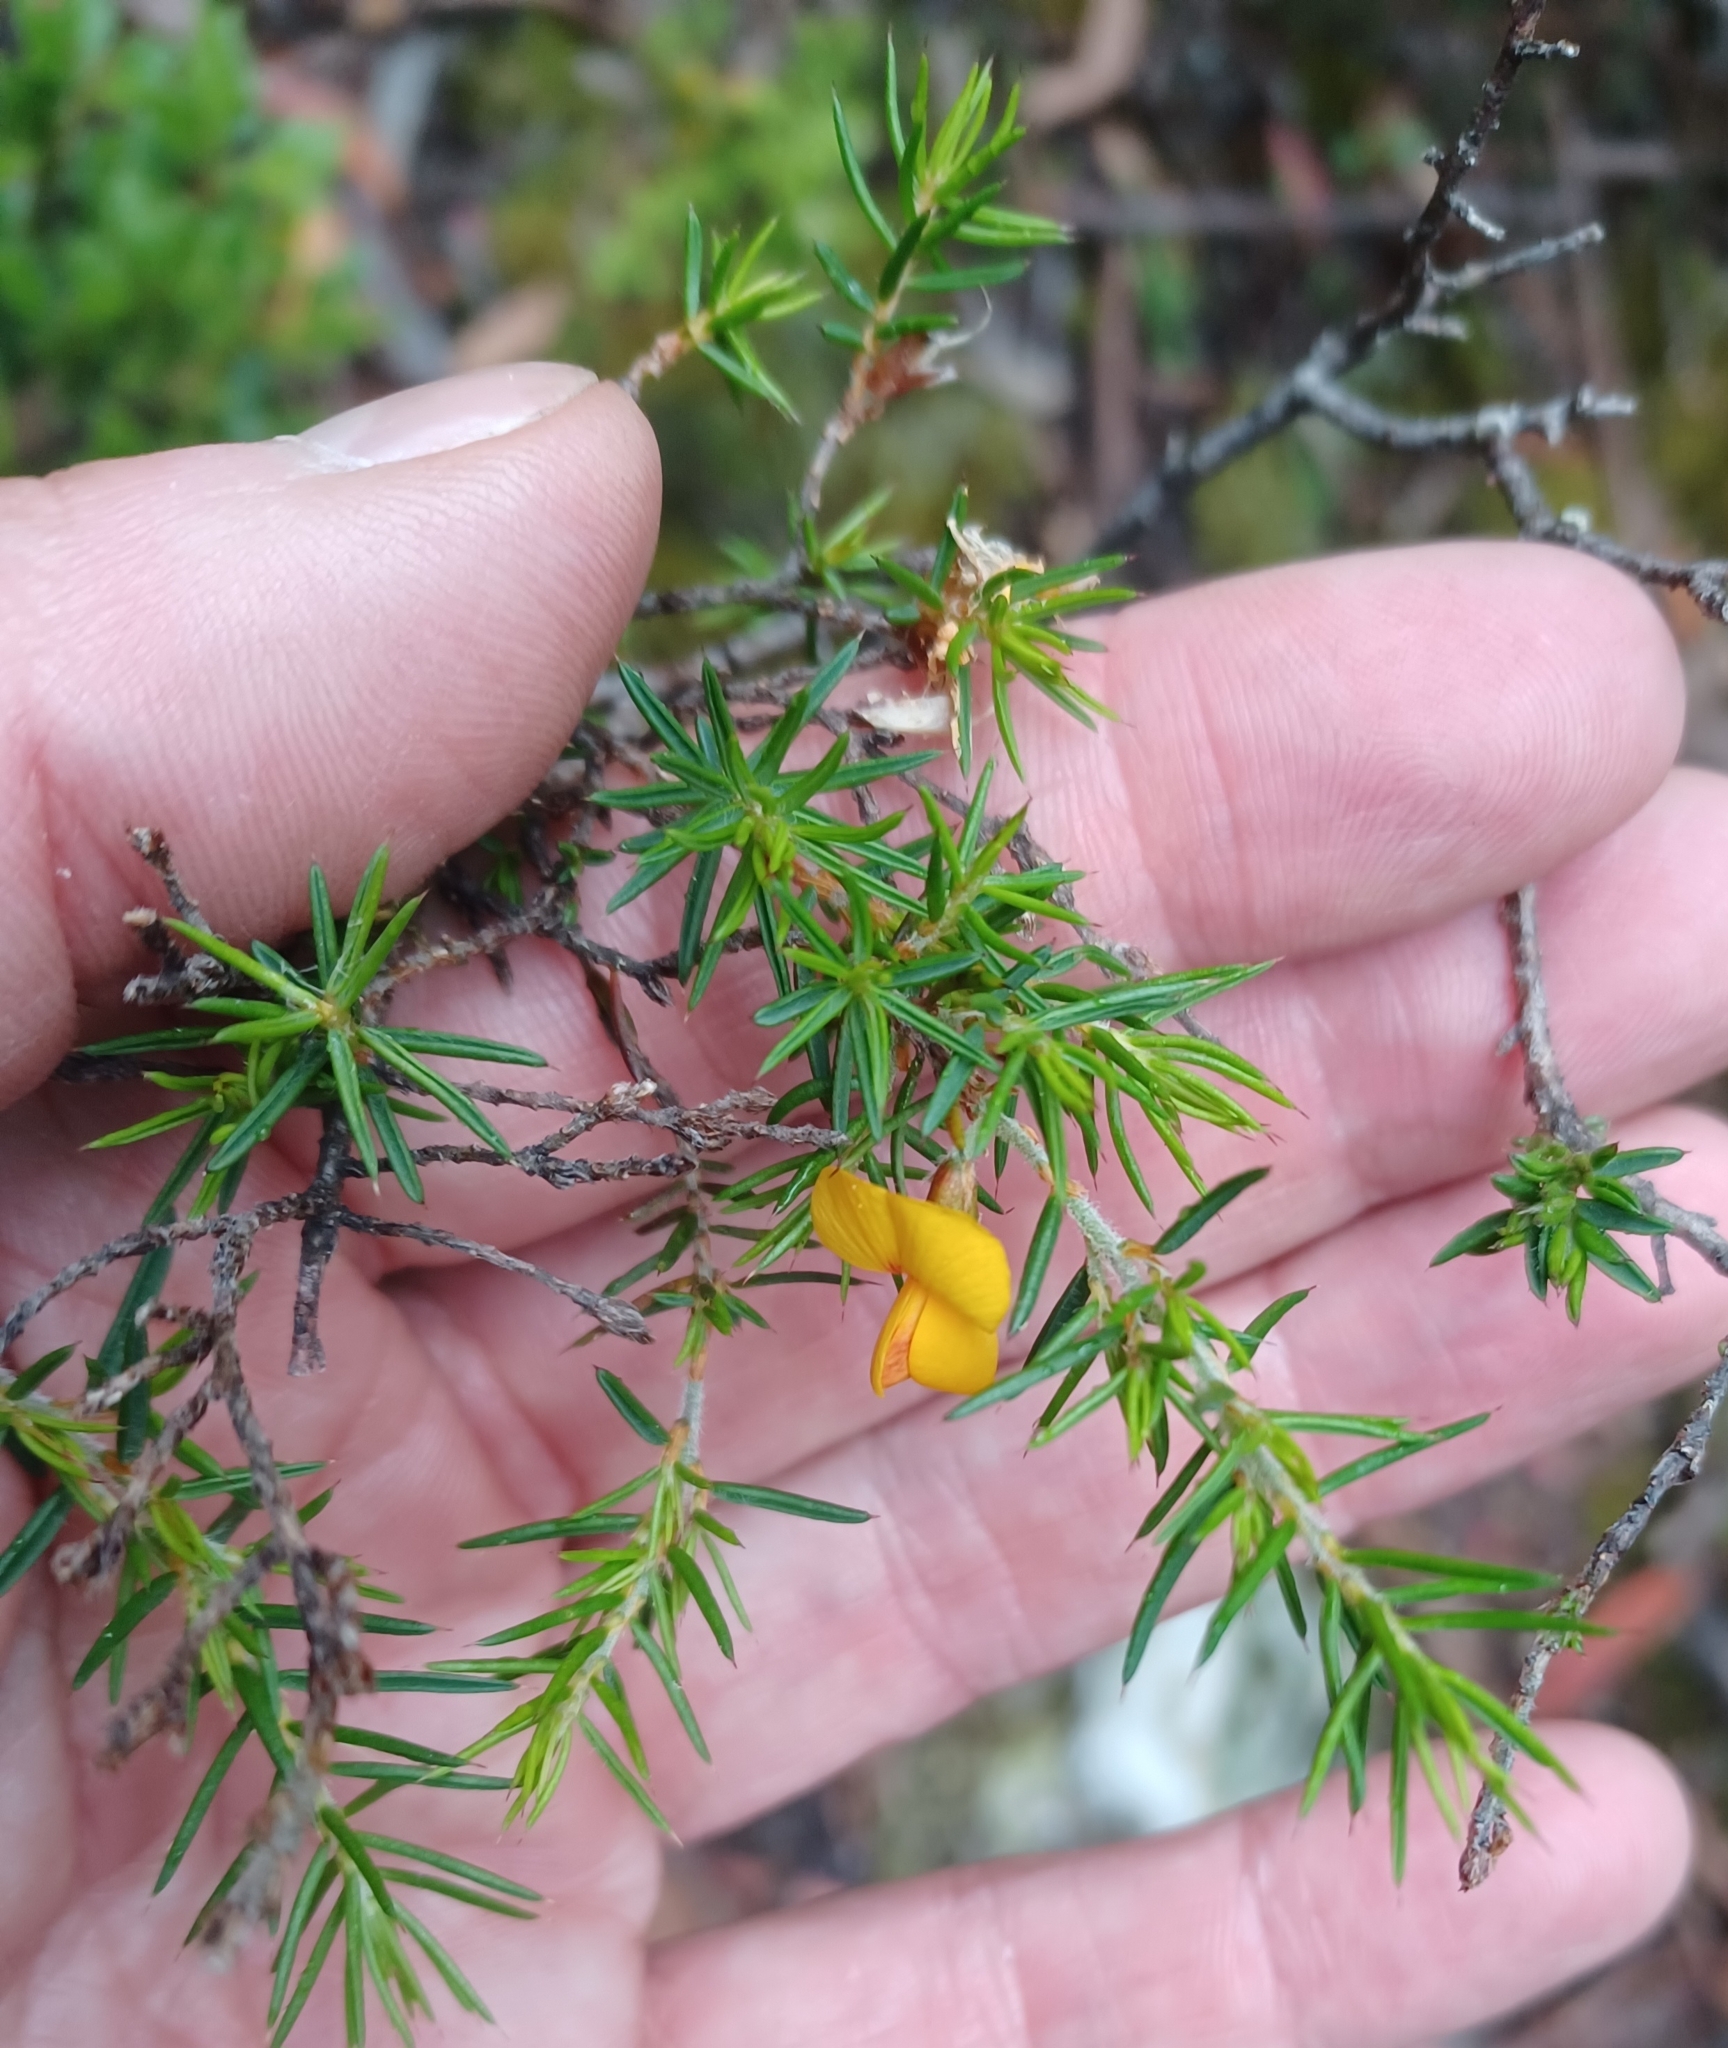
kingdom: Plantae
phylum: Tracheophyta
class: Magnoliopsida
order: Fabales
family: Fabaceae
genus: Pultenaea
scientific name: Pultenaea juniperina
